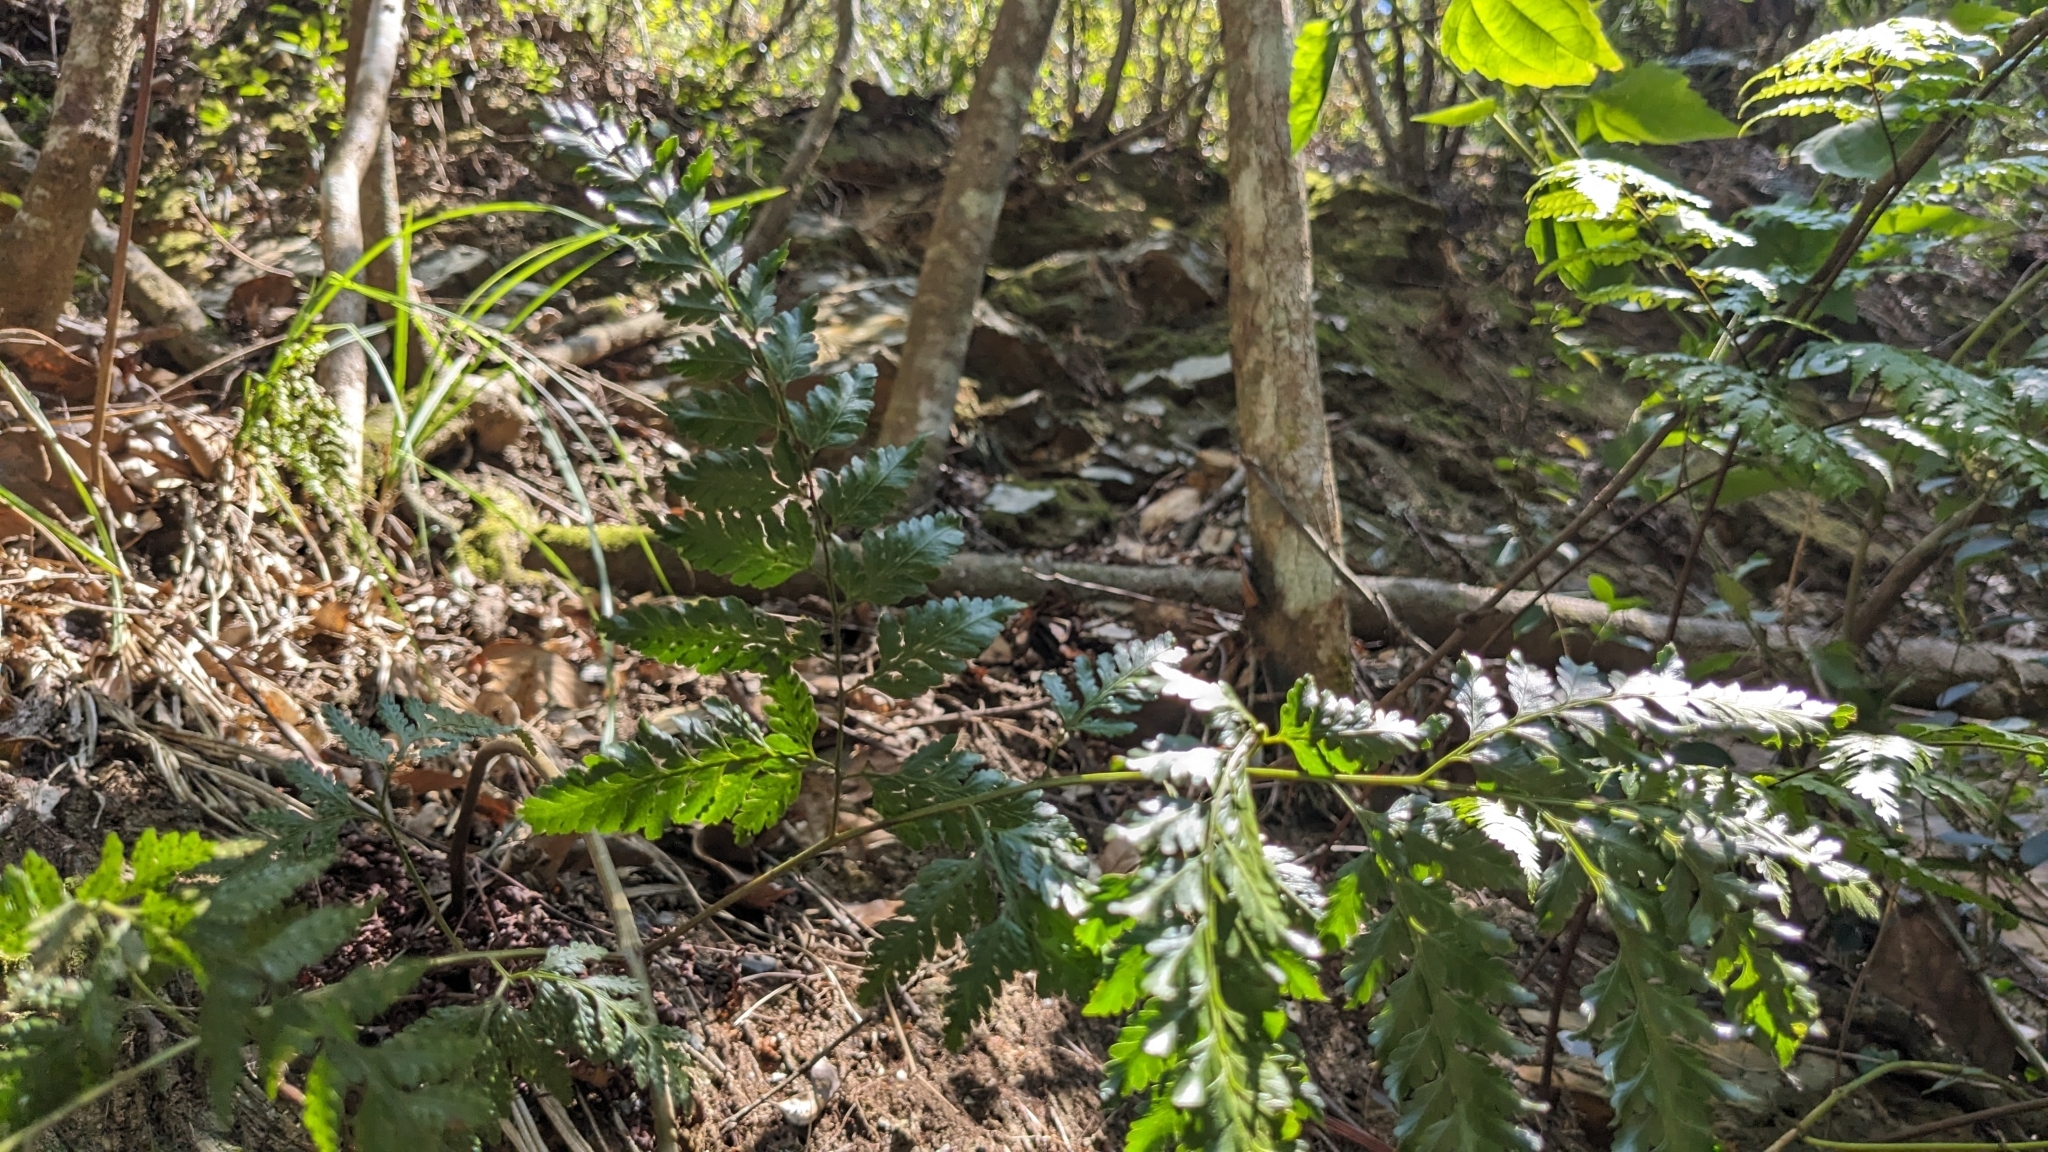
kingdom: Plantae
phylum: Tracheophyta
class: Polypodiopsida
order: Polypodiales
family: Davalliaceae
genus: Davallia
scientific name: Davallia divaricata
